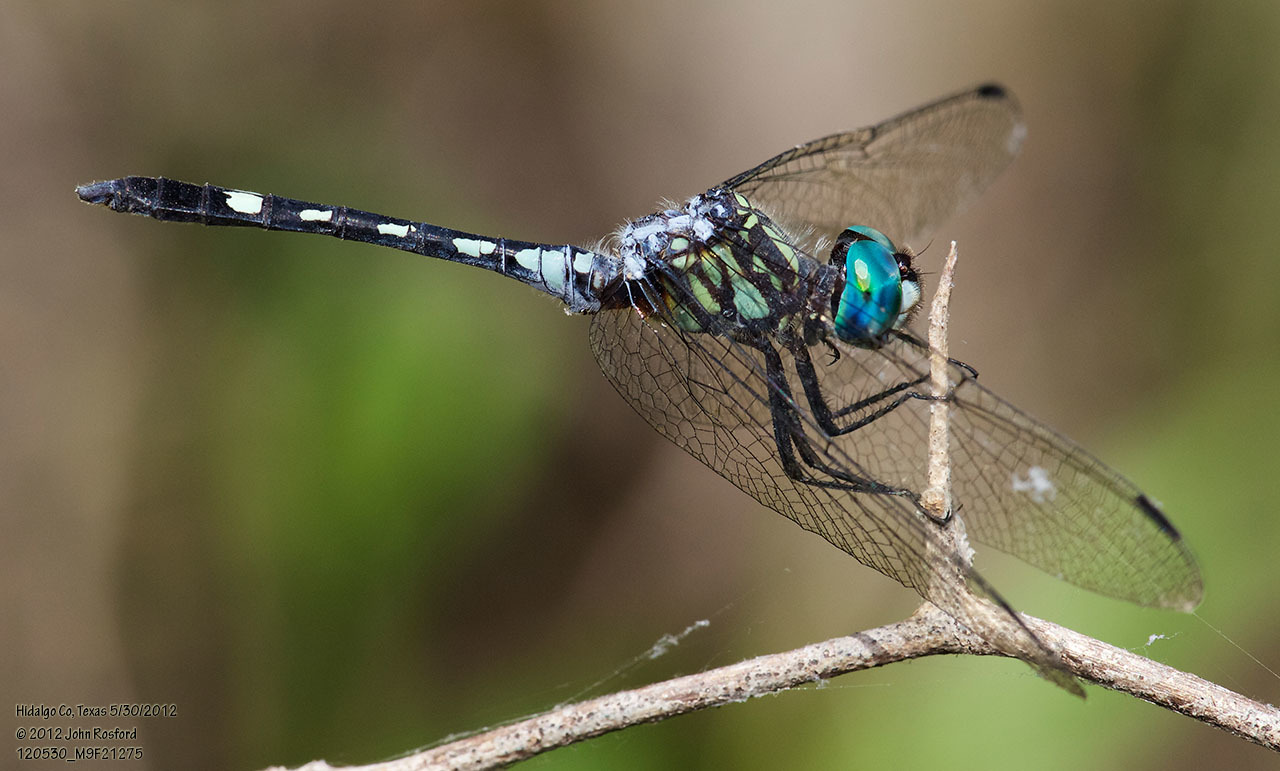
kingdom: Animalia
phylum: Arthropoda
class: Insecta
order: Odonata
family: Libellulidae
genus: Micrathyria
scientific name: Micrathyria hagenii
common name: Thornbush dasher
